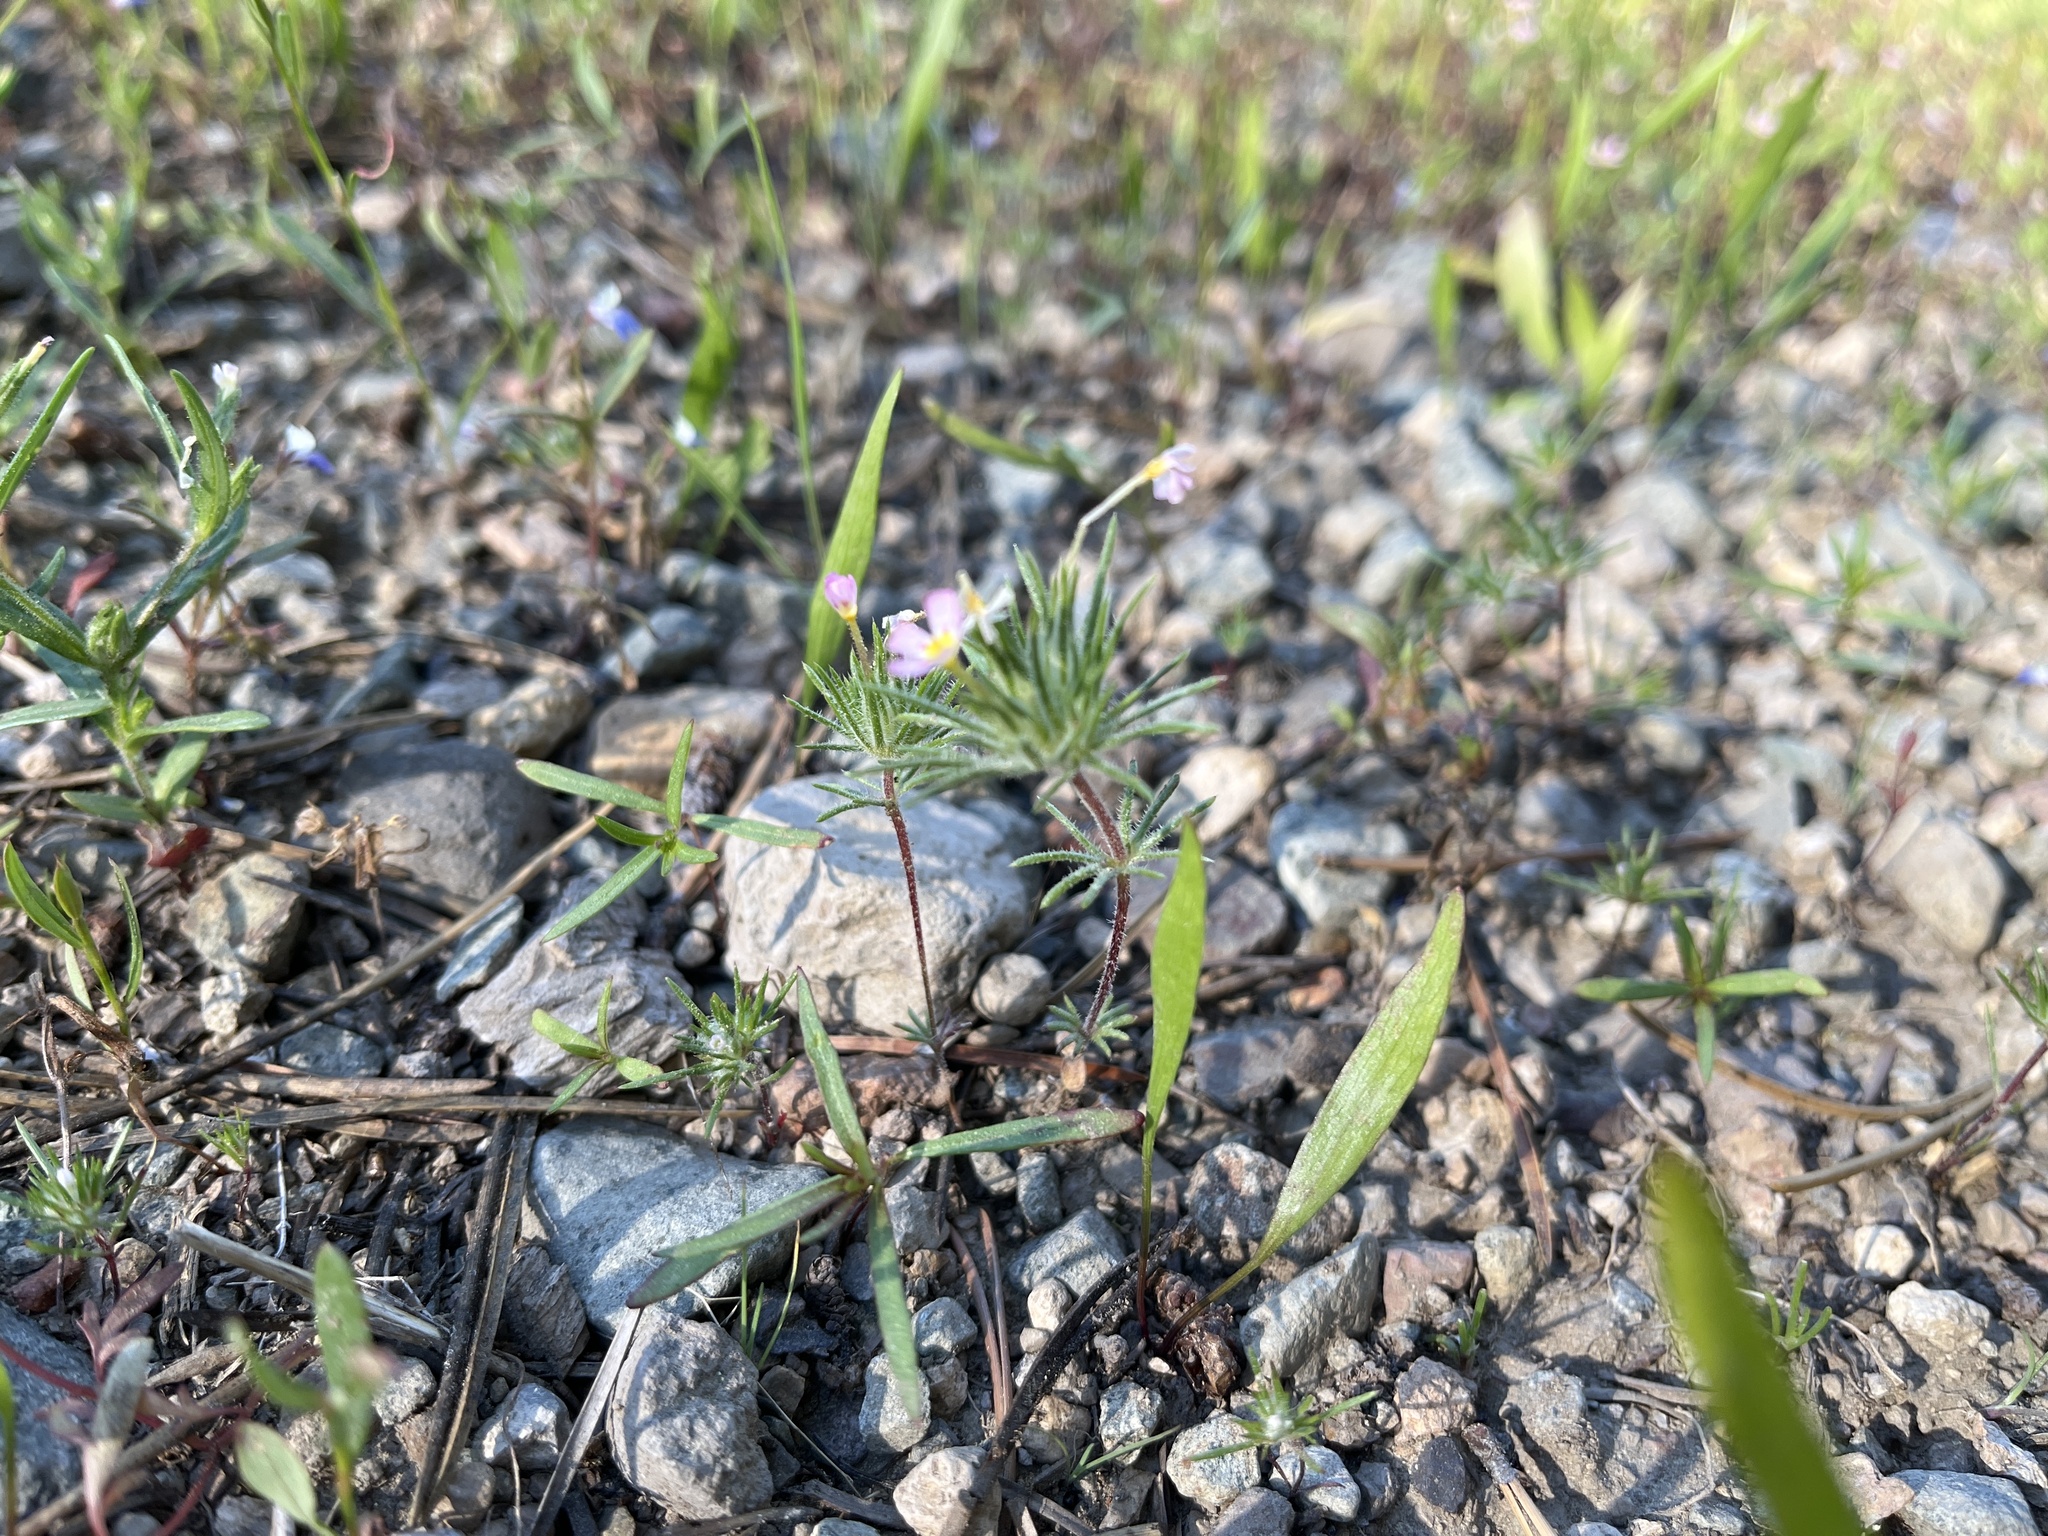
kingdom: Plantae
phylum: Tracheophyta
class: Magnoliopsida
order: Ericales
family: Polemoniaceae
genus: Leptosiphon
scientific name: Leptosiphon ciliatus
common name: Whiskerbrush
